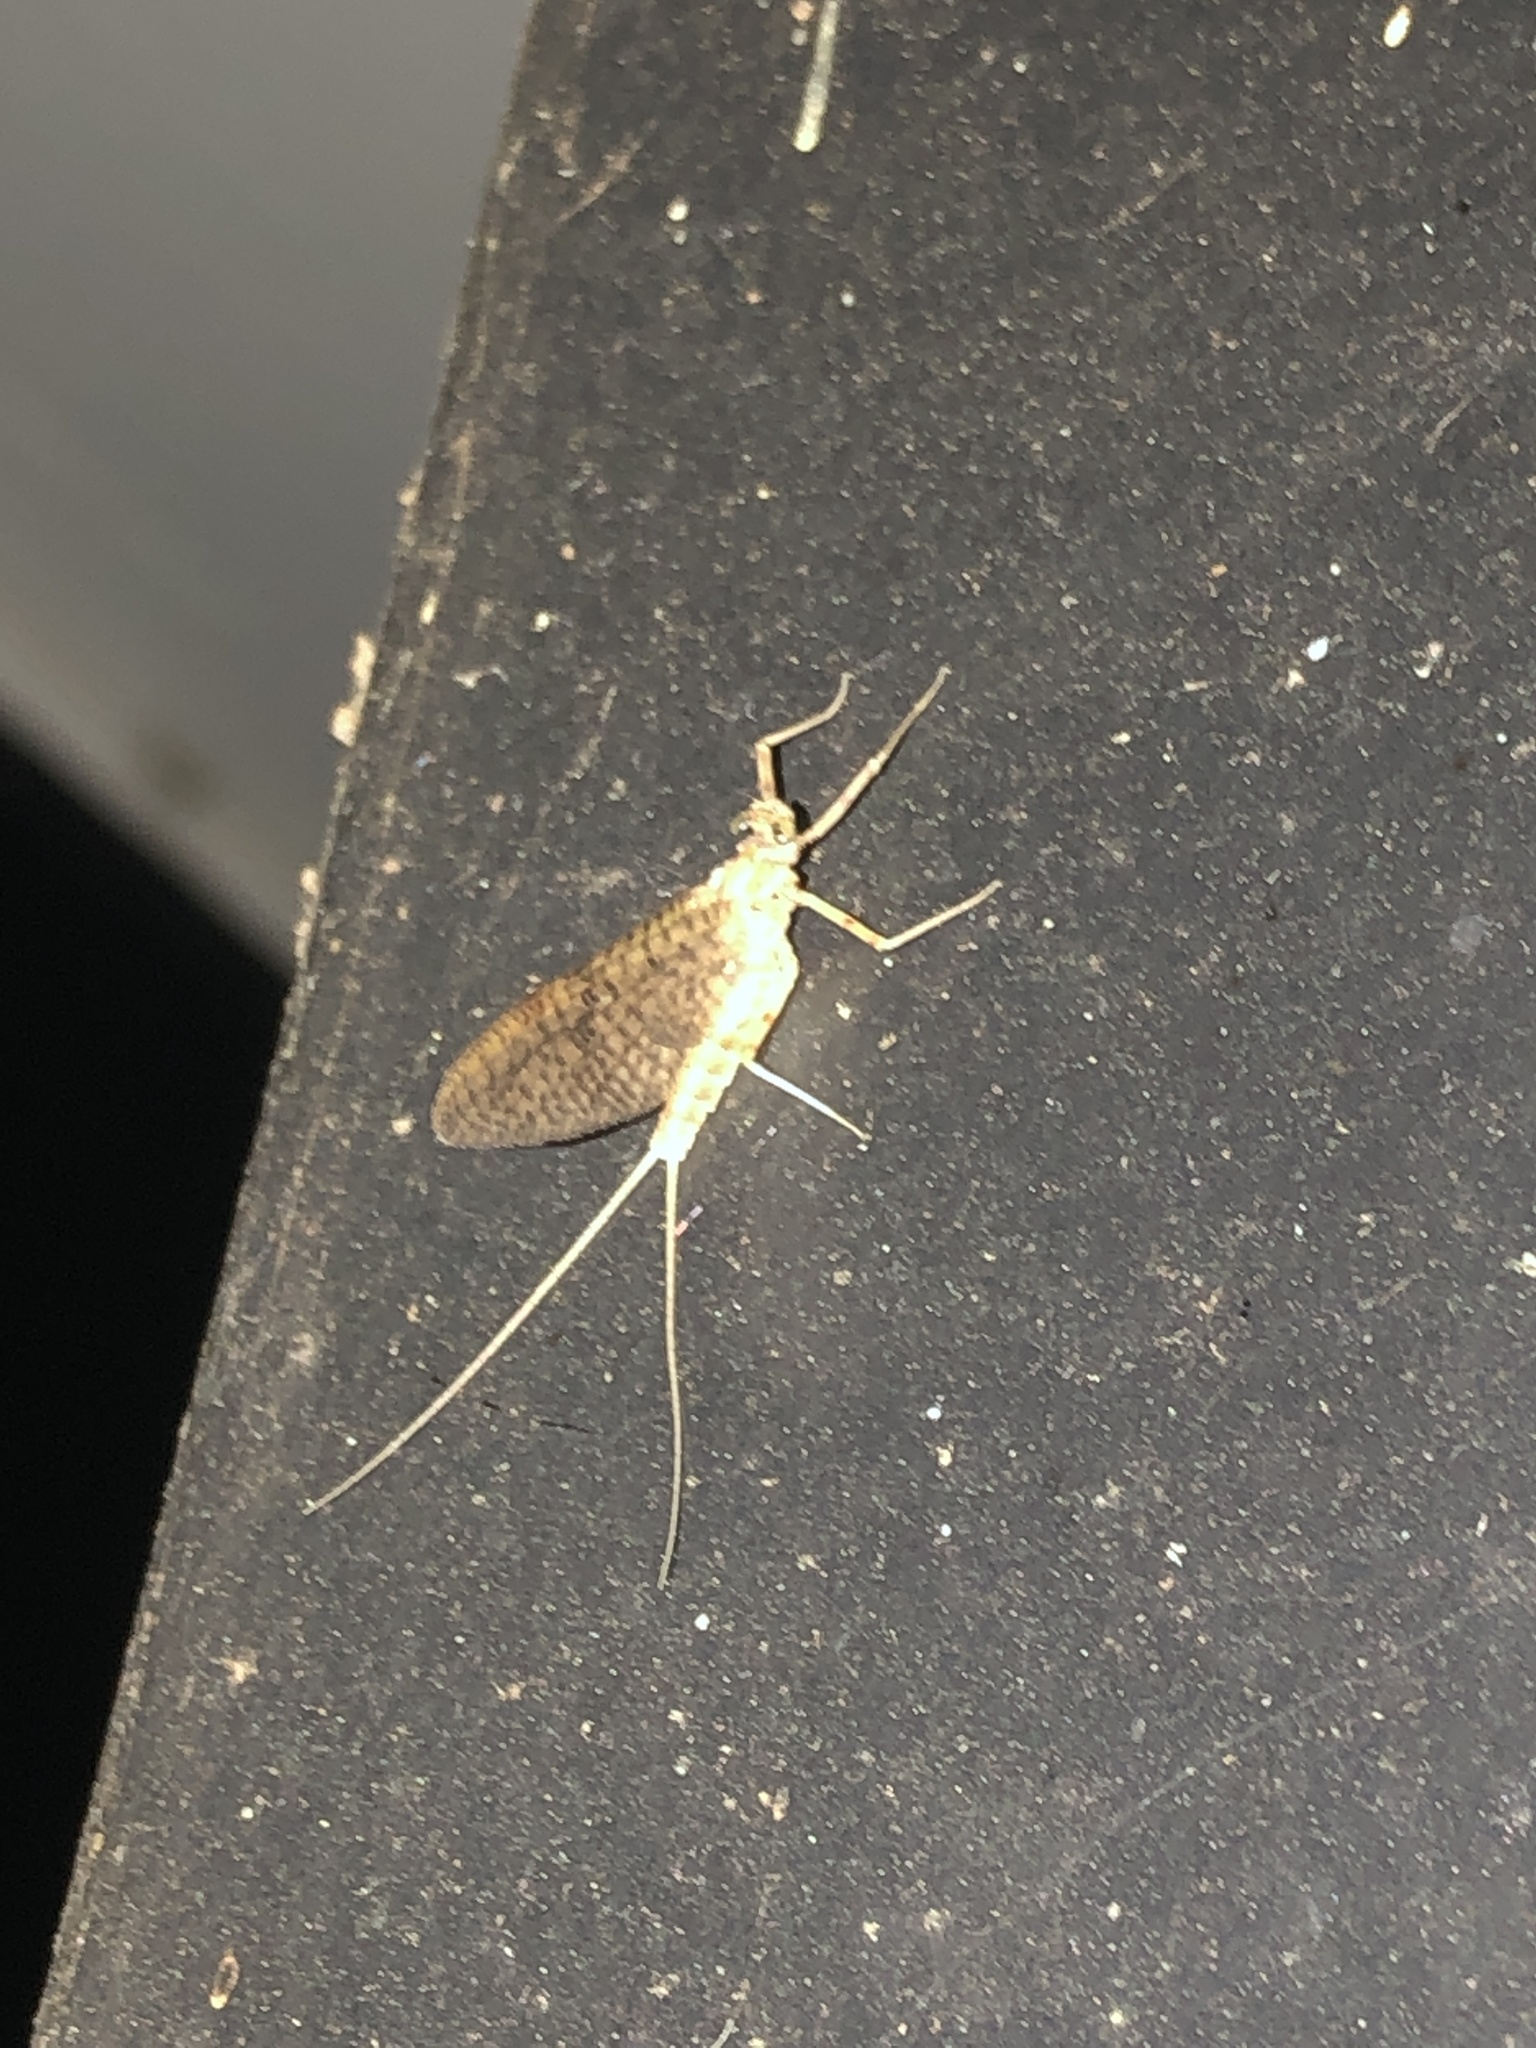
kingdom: Animalia
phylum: Arthropoda
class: Insecta
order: Ephemeroptera
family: Heptageniidae
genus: Stenonema
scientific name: Stenonema femoratum
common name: Dark cahill
